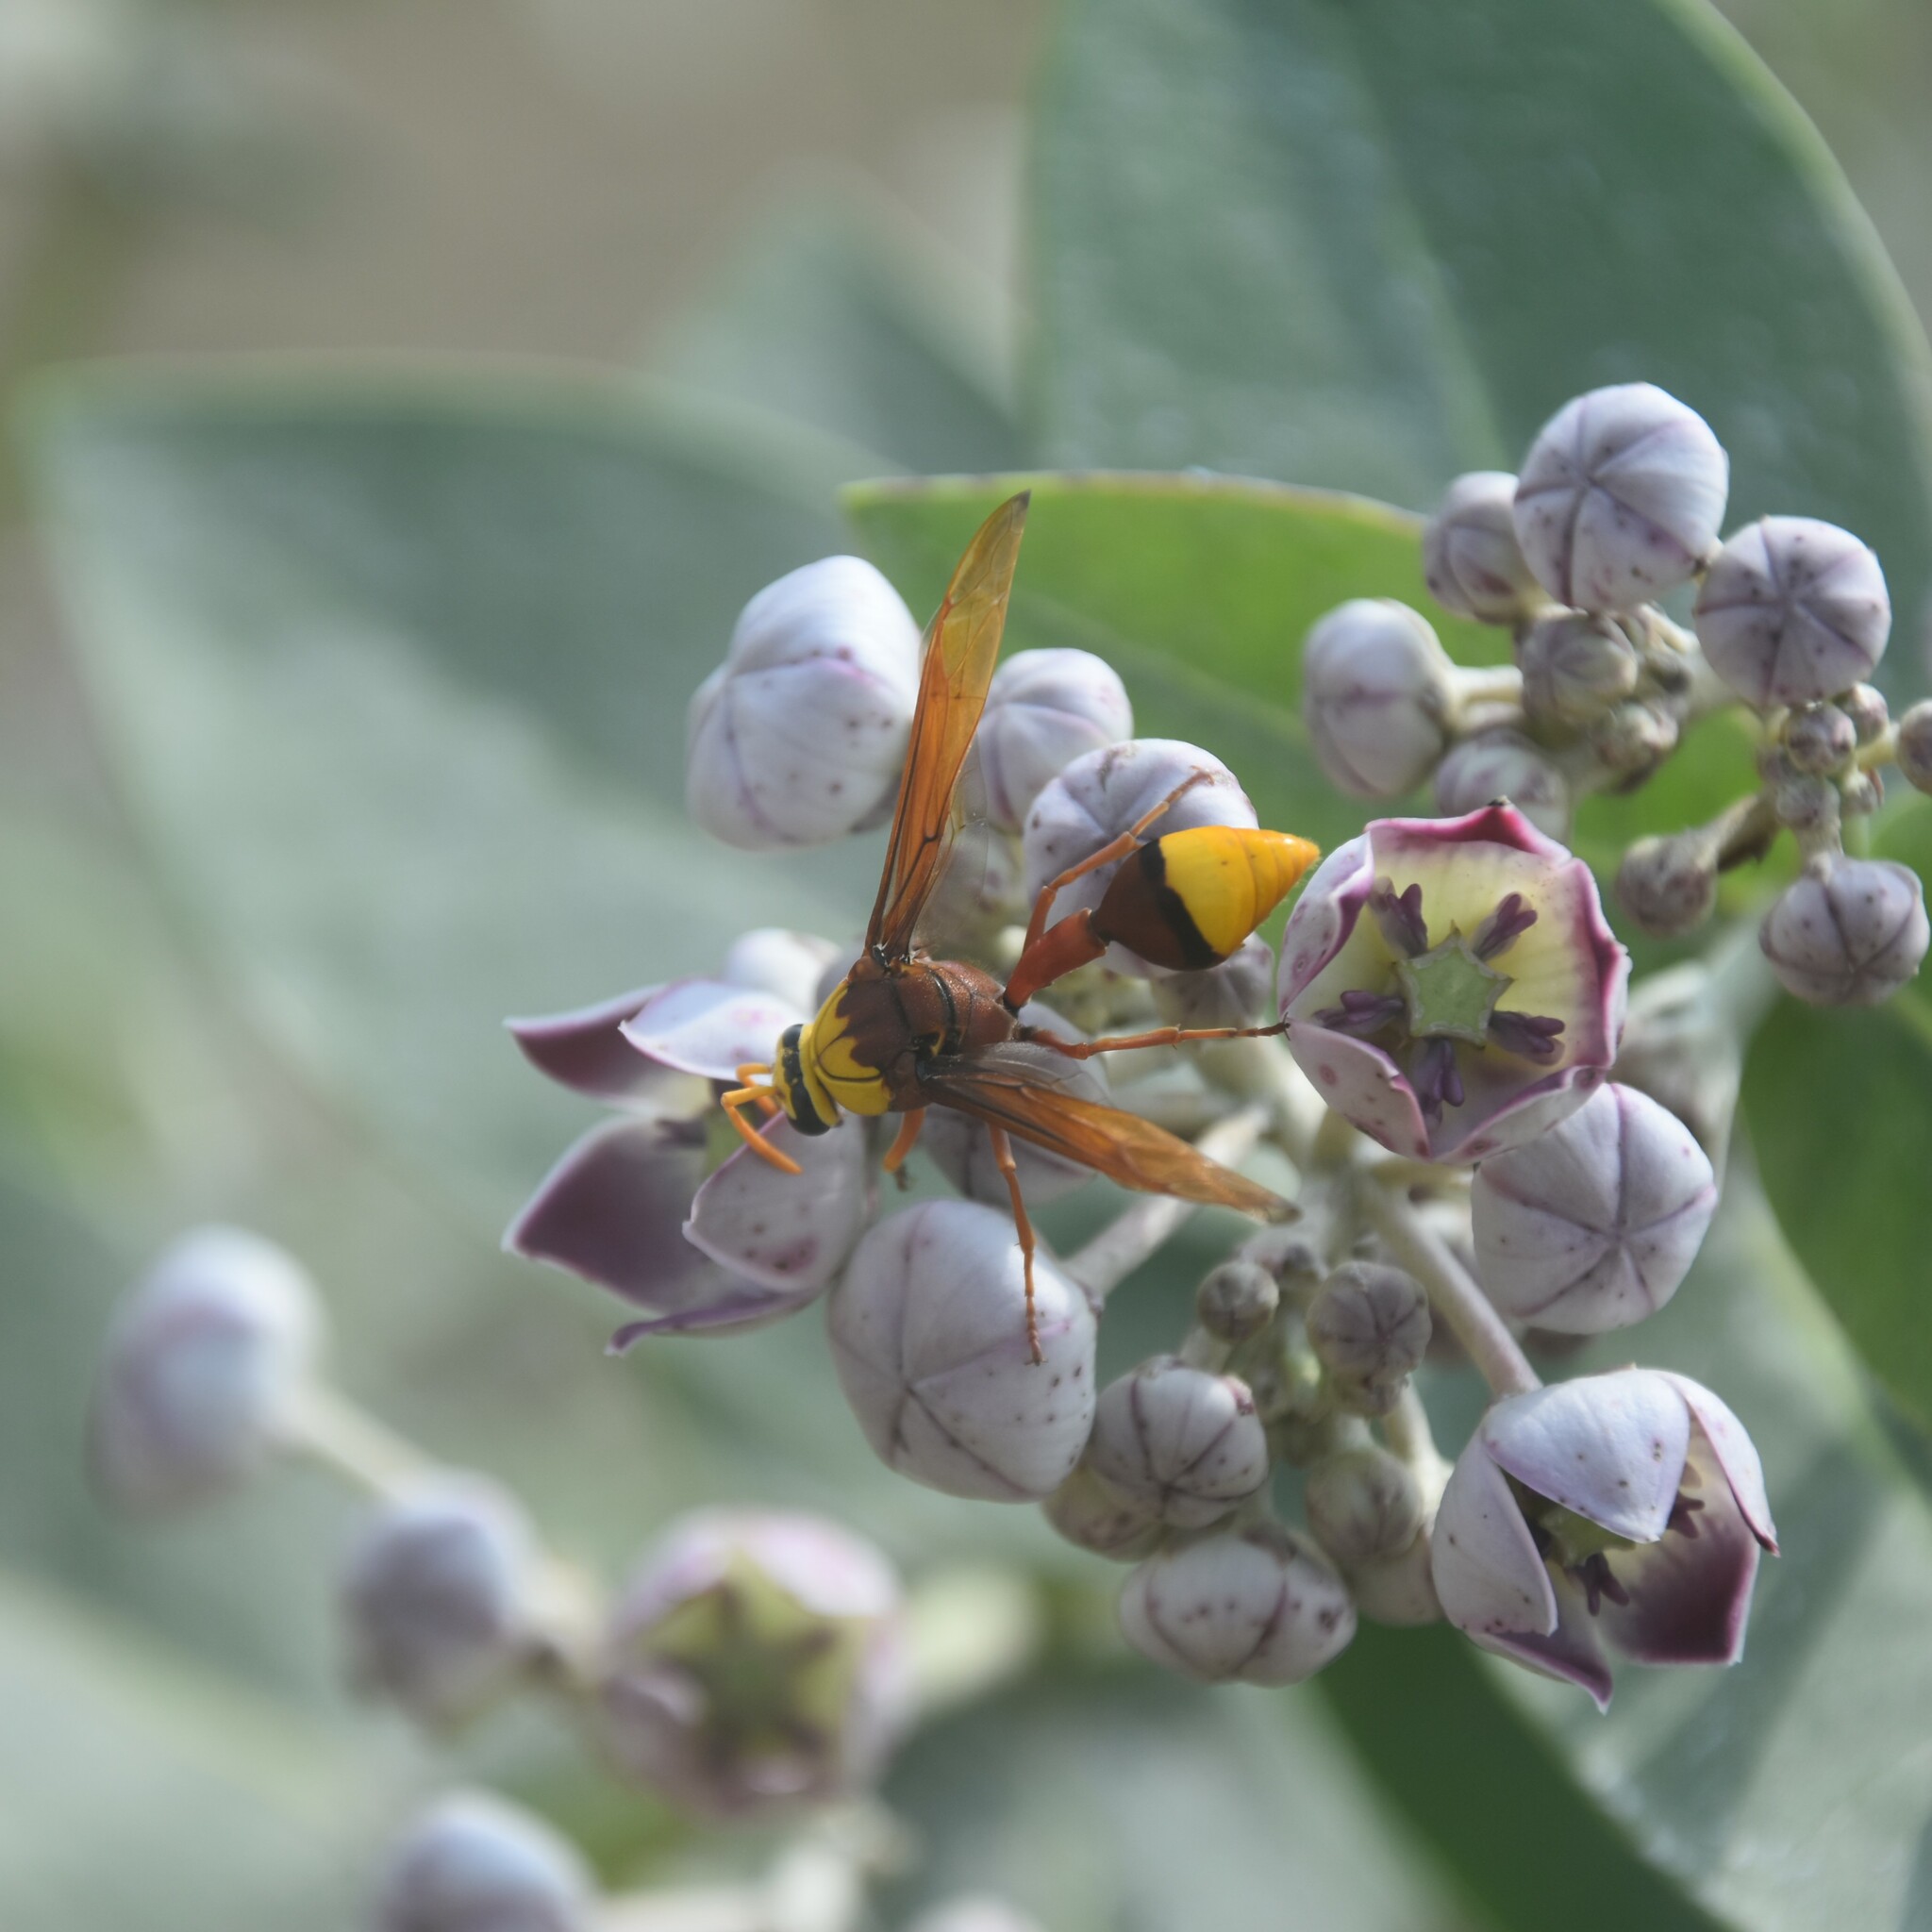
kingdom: Animalia
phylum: Arthropoda
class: Insecta
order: Hymenoptera
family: Eumenidae
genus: Delta
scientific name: Delta pyriforme
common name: Wasp
